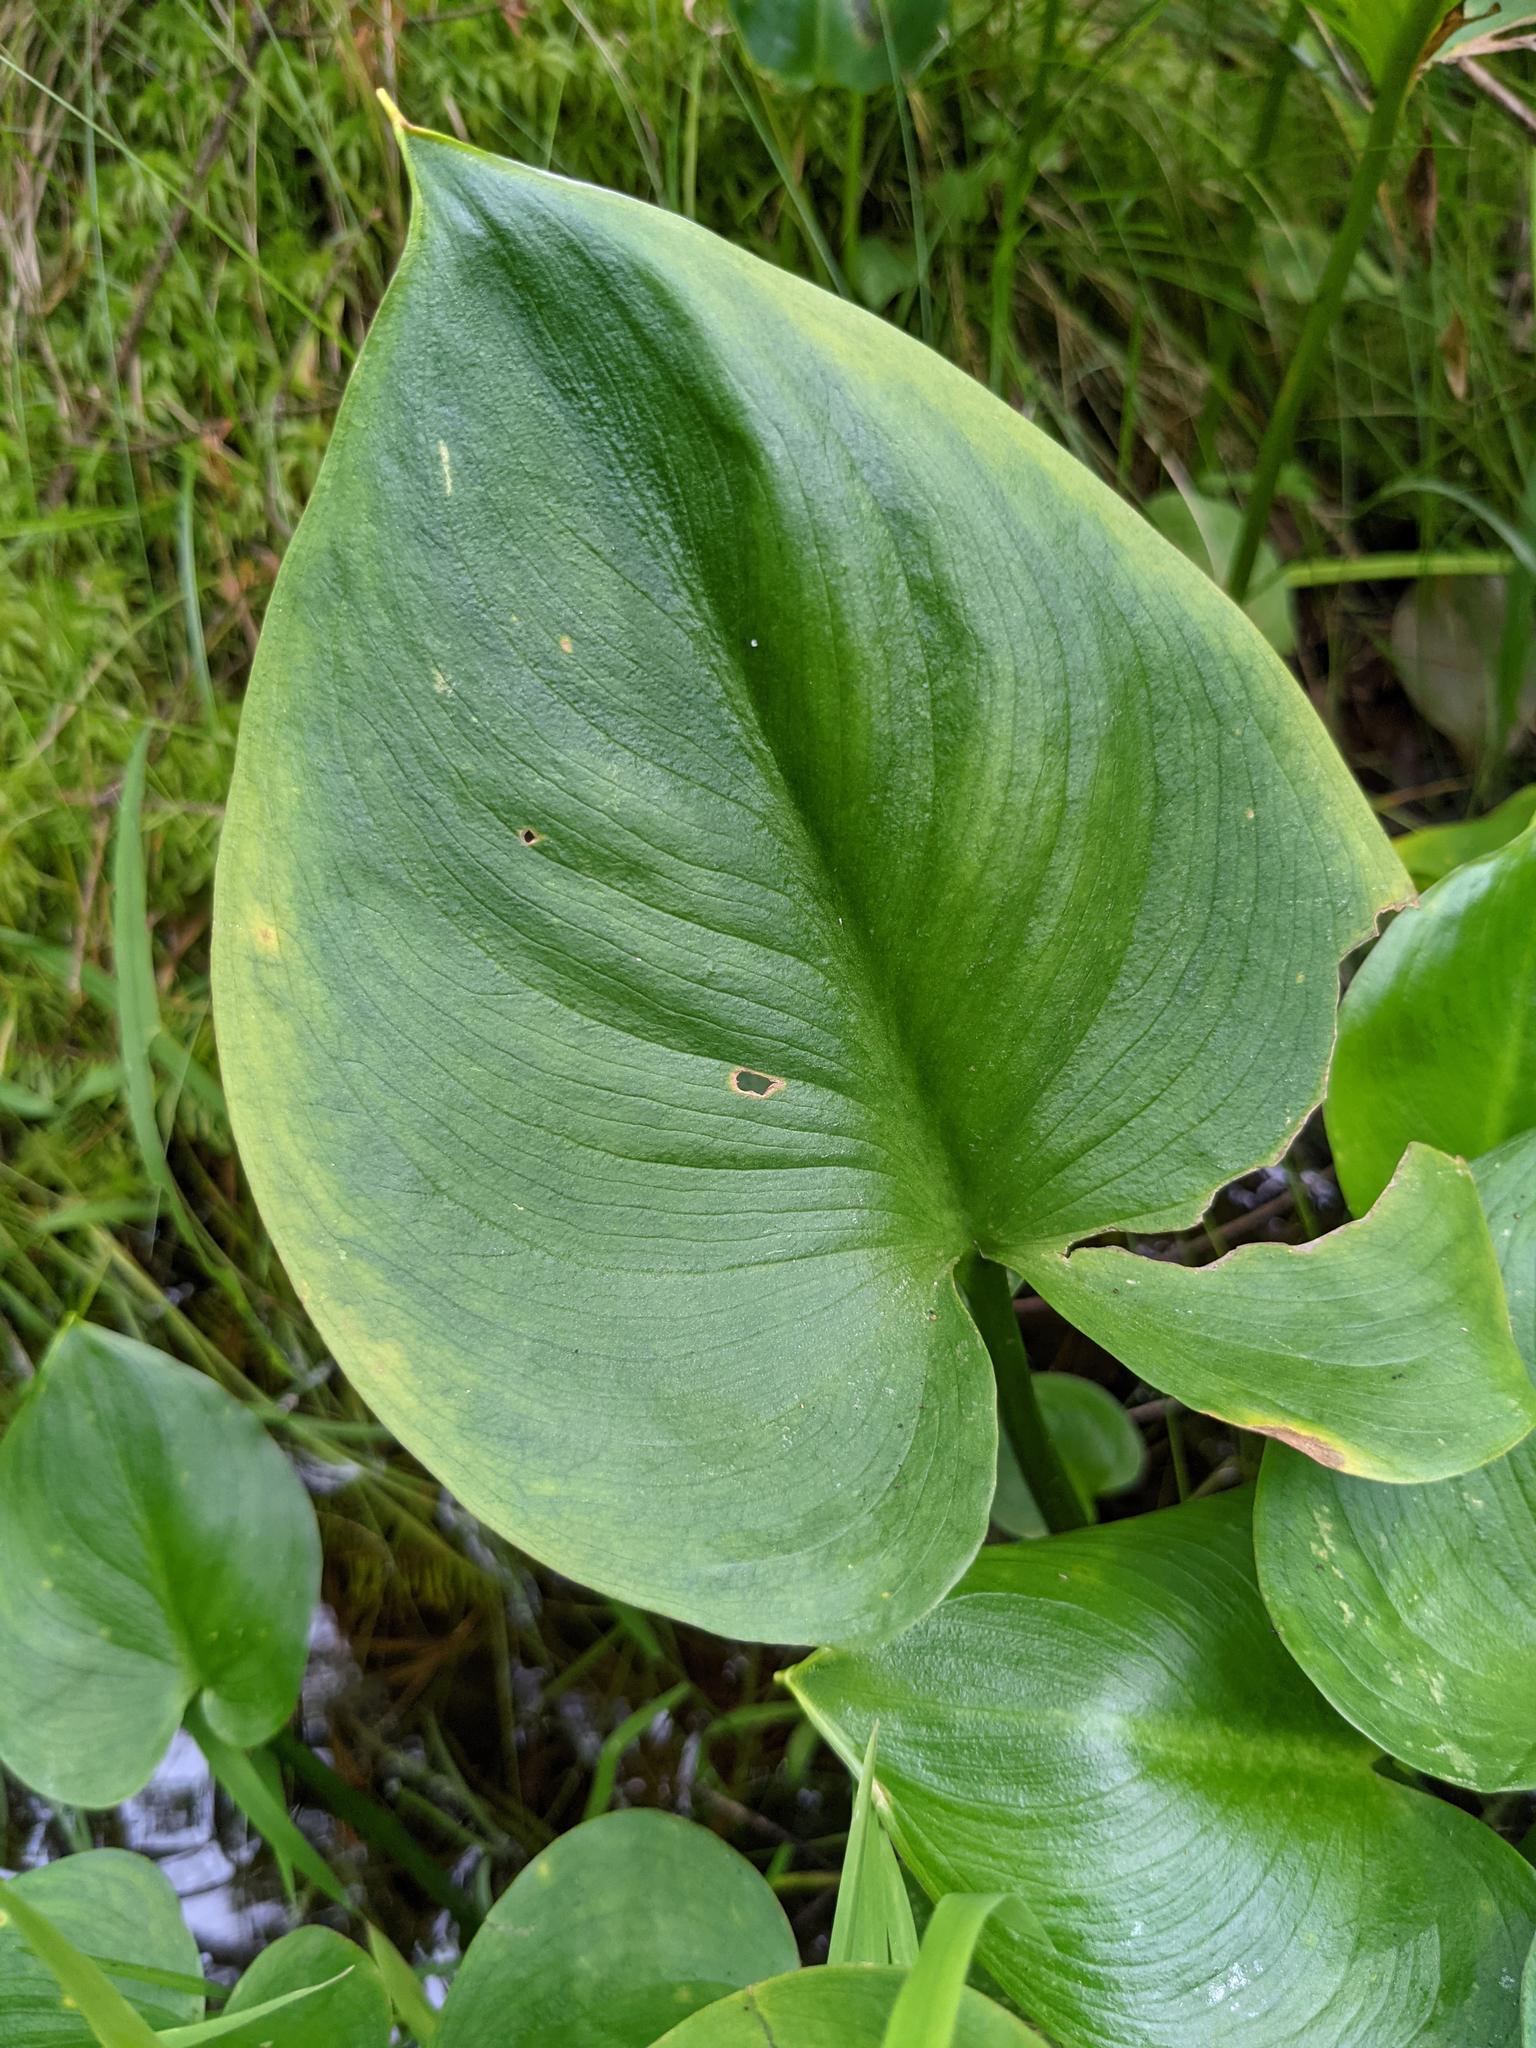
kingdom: Plantae
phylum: Tracheophyta
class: Liliopsida
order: Alismatales
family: Araceae
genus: Calla
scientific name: Calla palustris
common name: Bog arum
